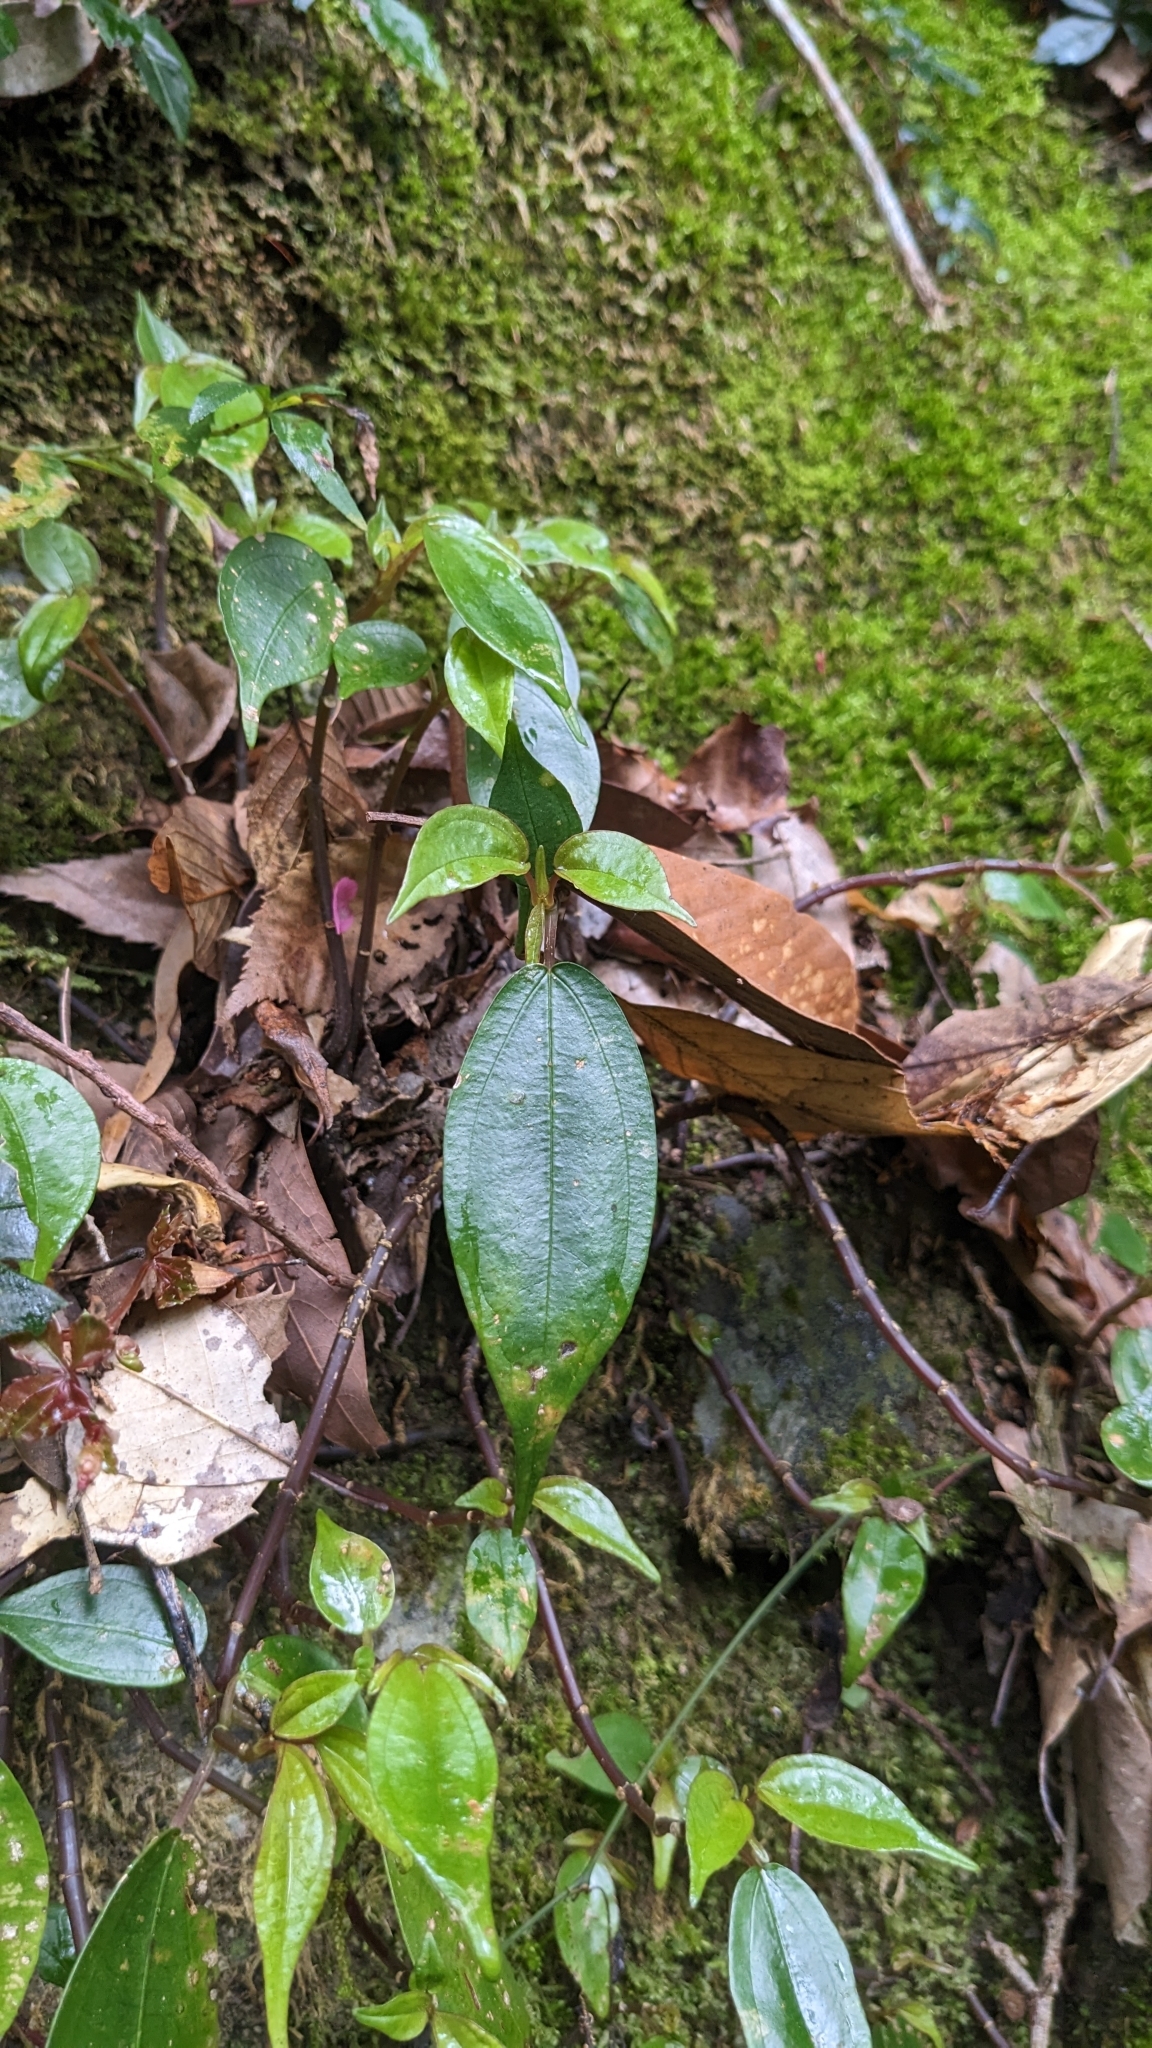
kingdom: Plantae
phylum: Tracheophyta
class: Magnoliopsida
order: Rosales
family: Urticaceae
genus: Pilea
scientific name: Pilea plataniflora
